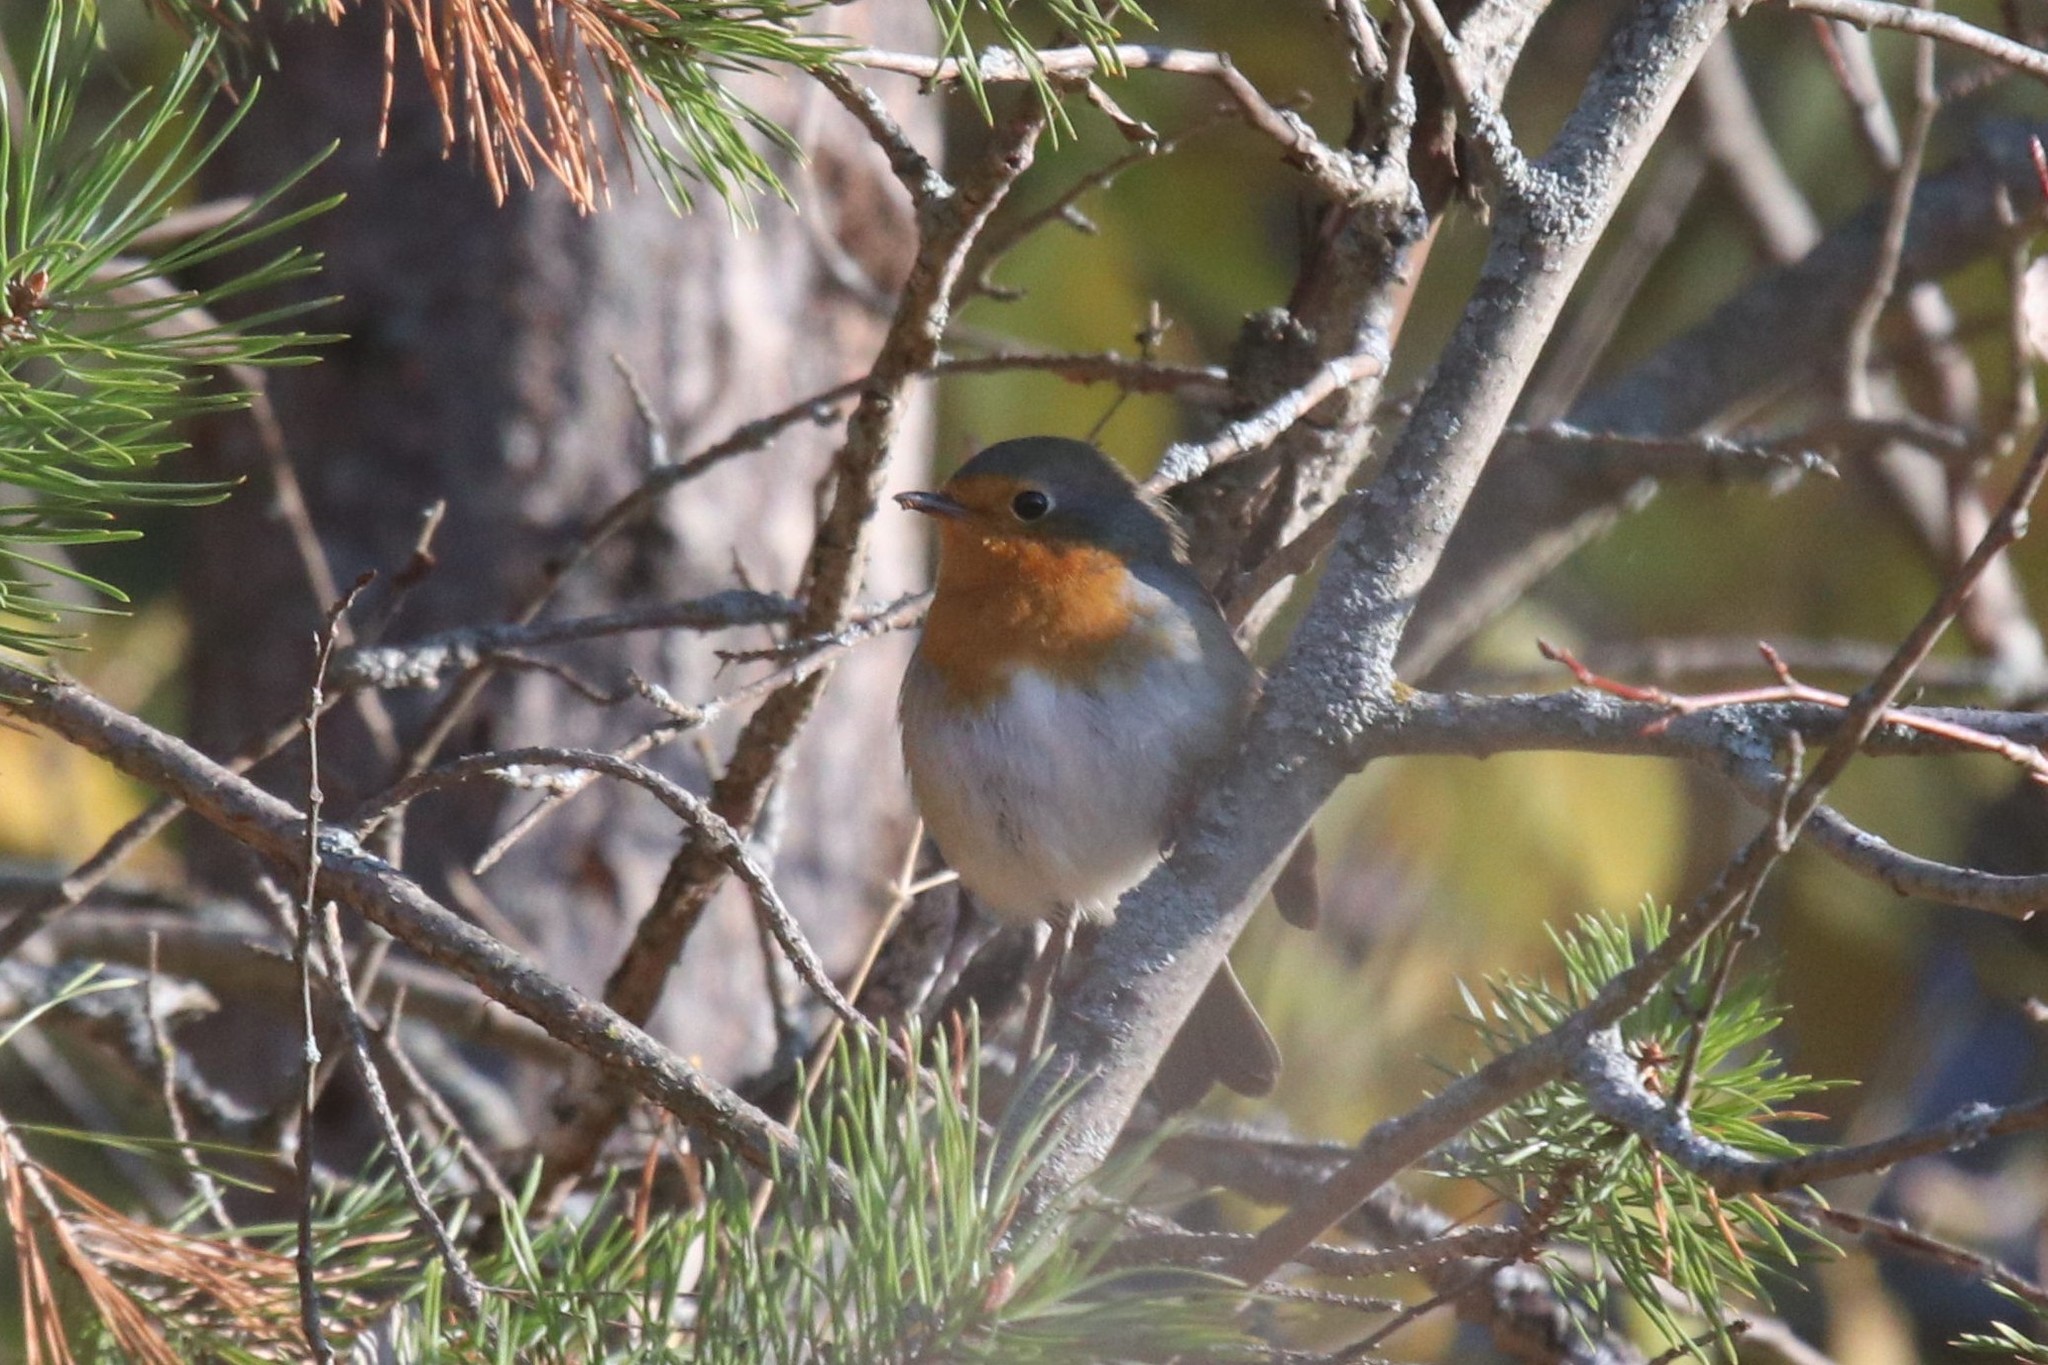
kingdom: Animalia
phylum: Chordata
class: Aves
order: Passeriformes
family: Muscicapidae
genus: Erithacus
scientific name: Erithacus rubecula
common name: European robin
